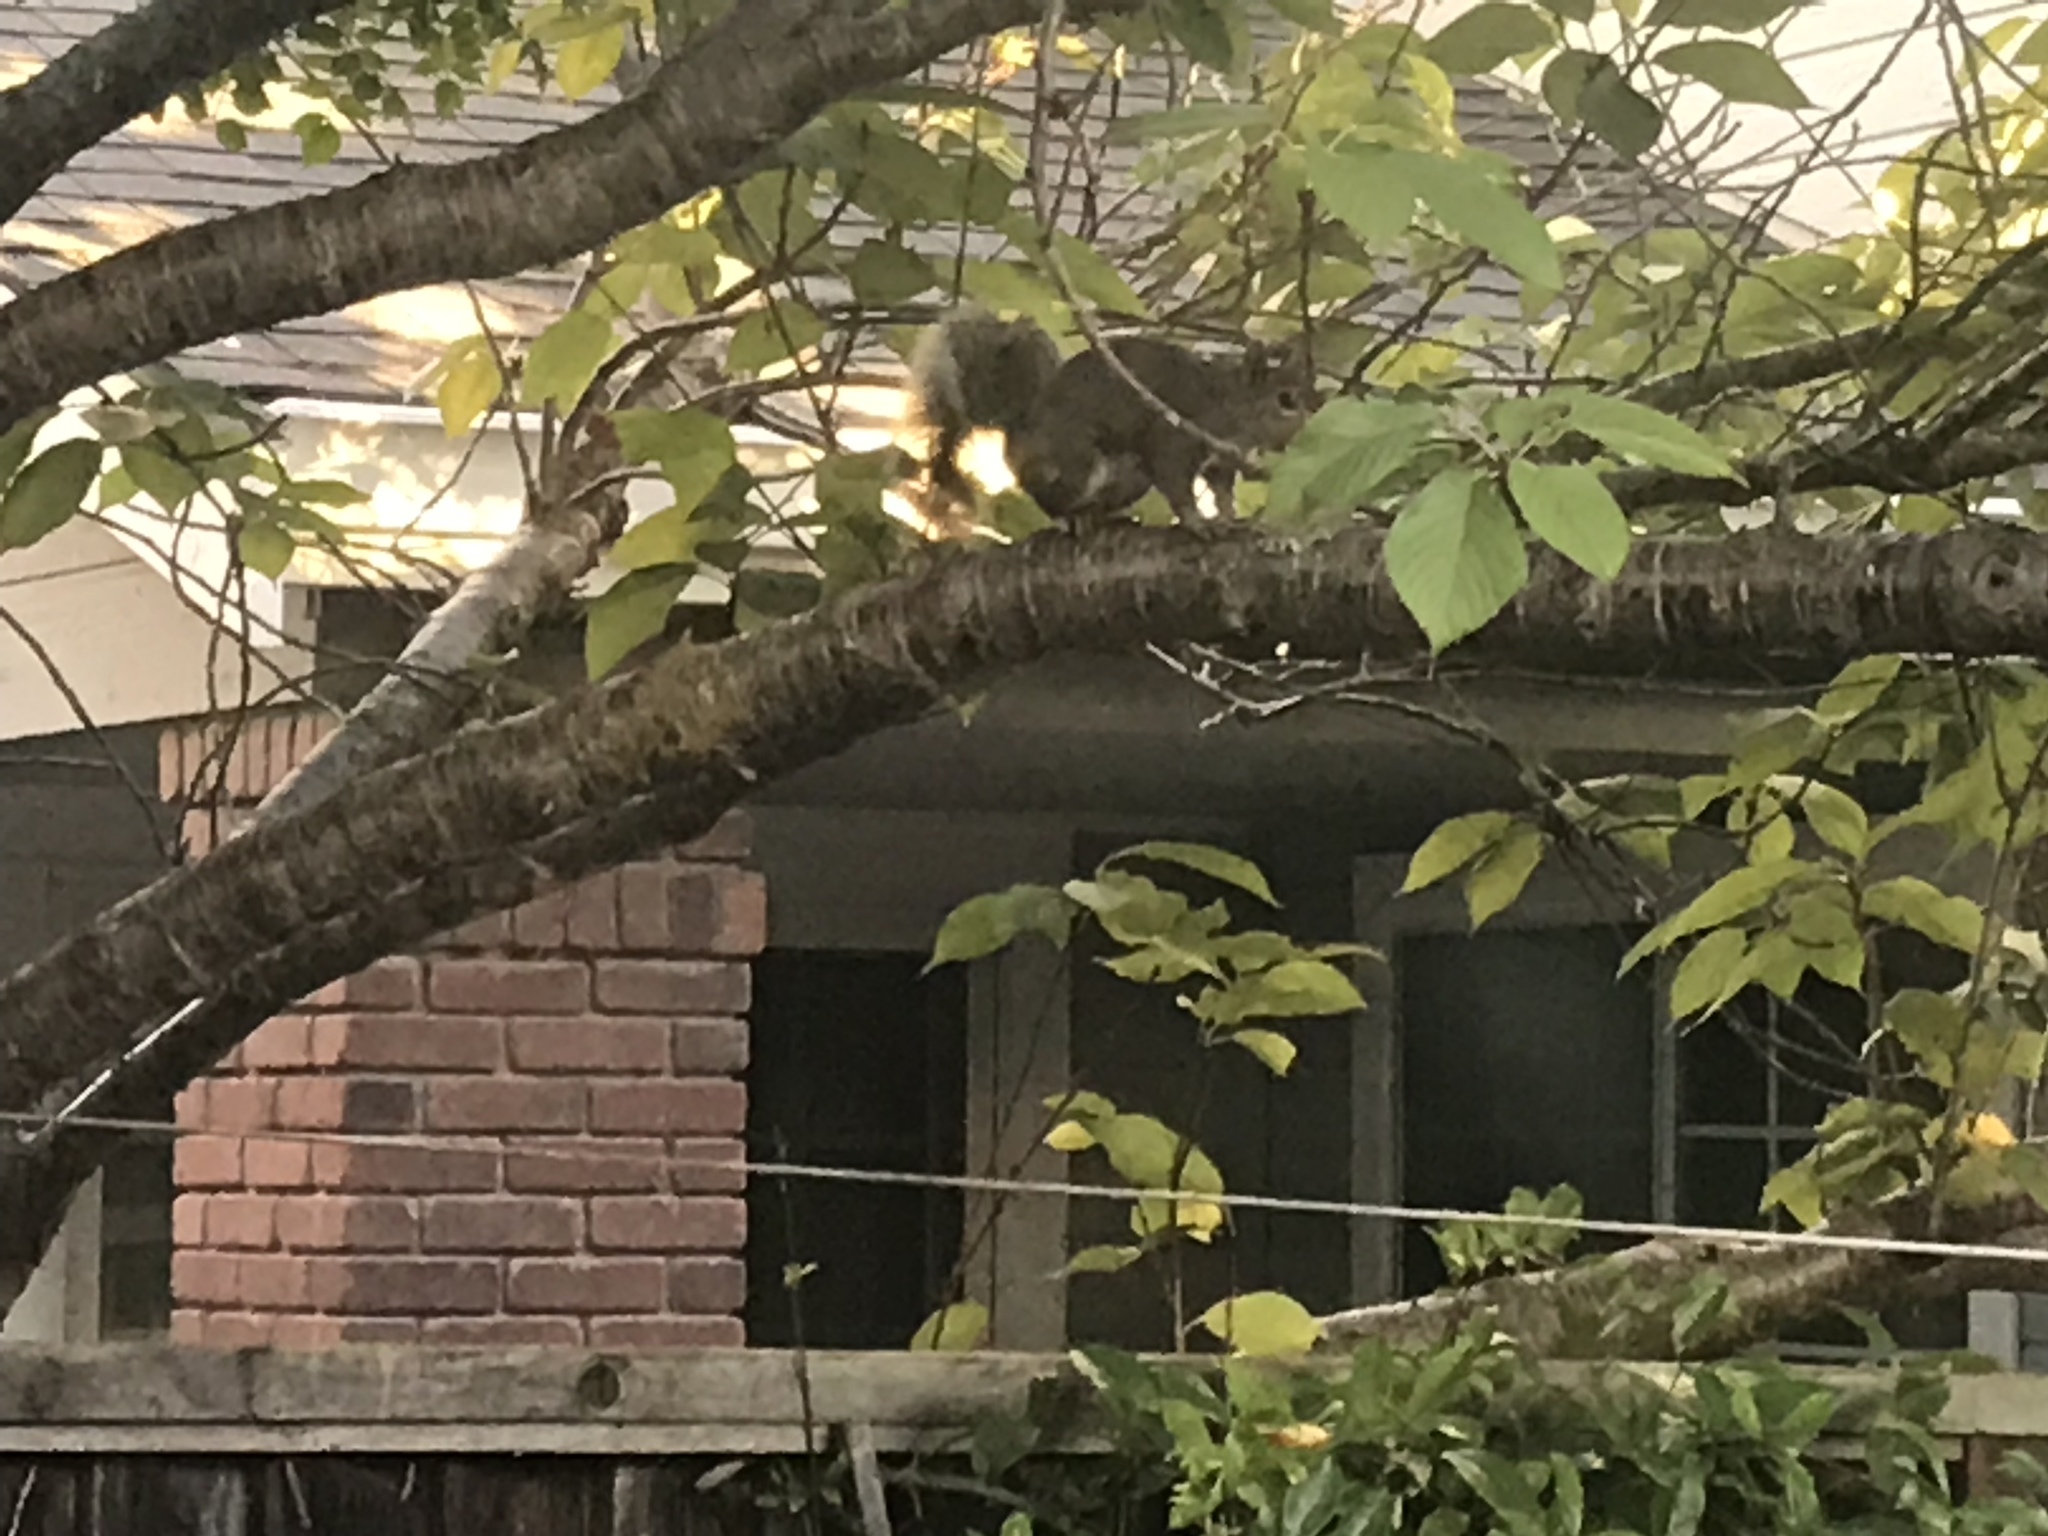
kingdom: Animalia
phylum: Chordata
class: Mammalia
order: Rodentia
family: Sciuridae
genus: Sciurus
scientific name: Sciurus carolinensis
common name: Eastern gray squirrel
